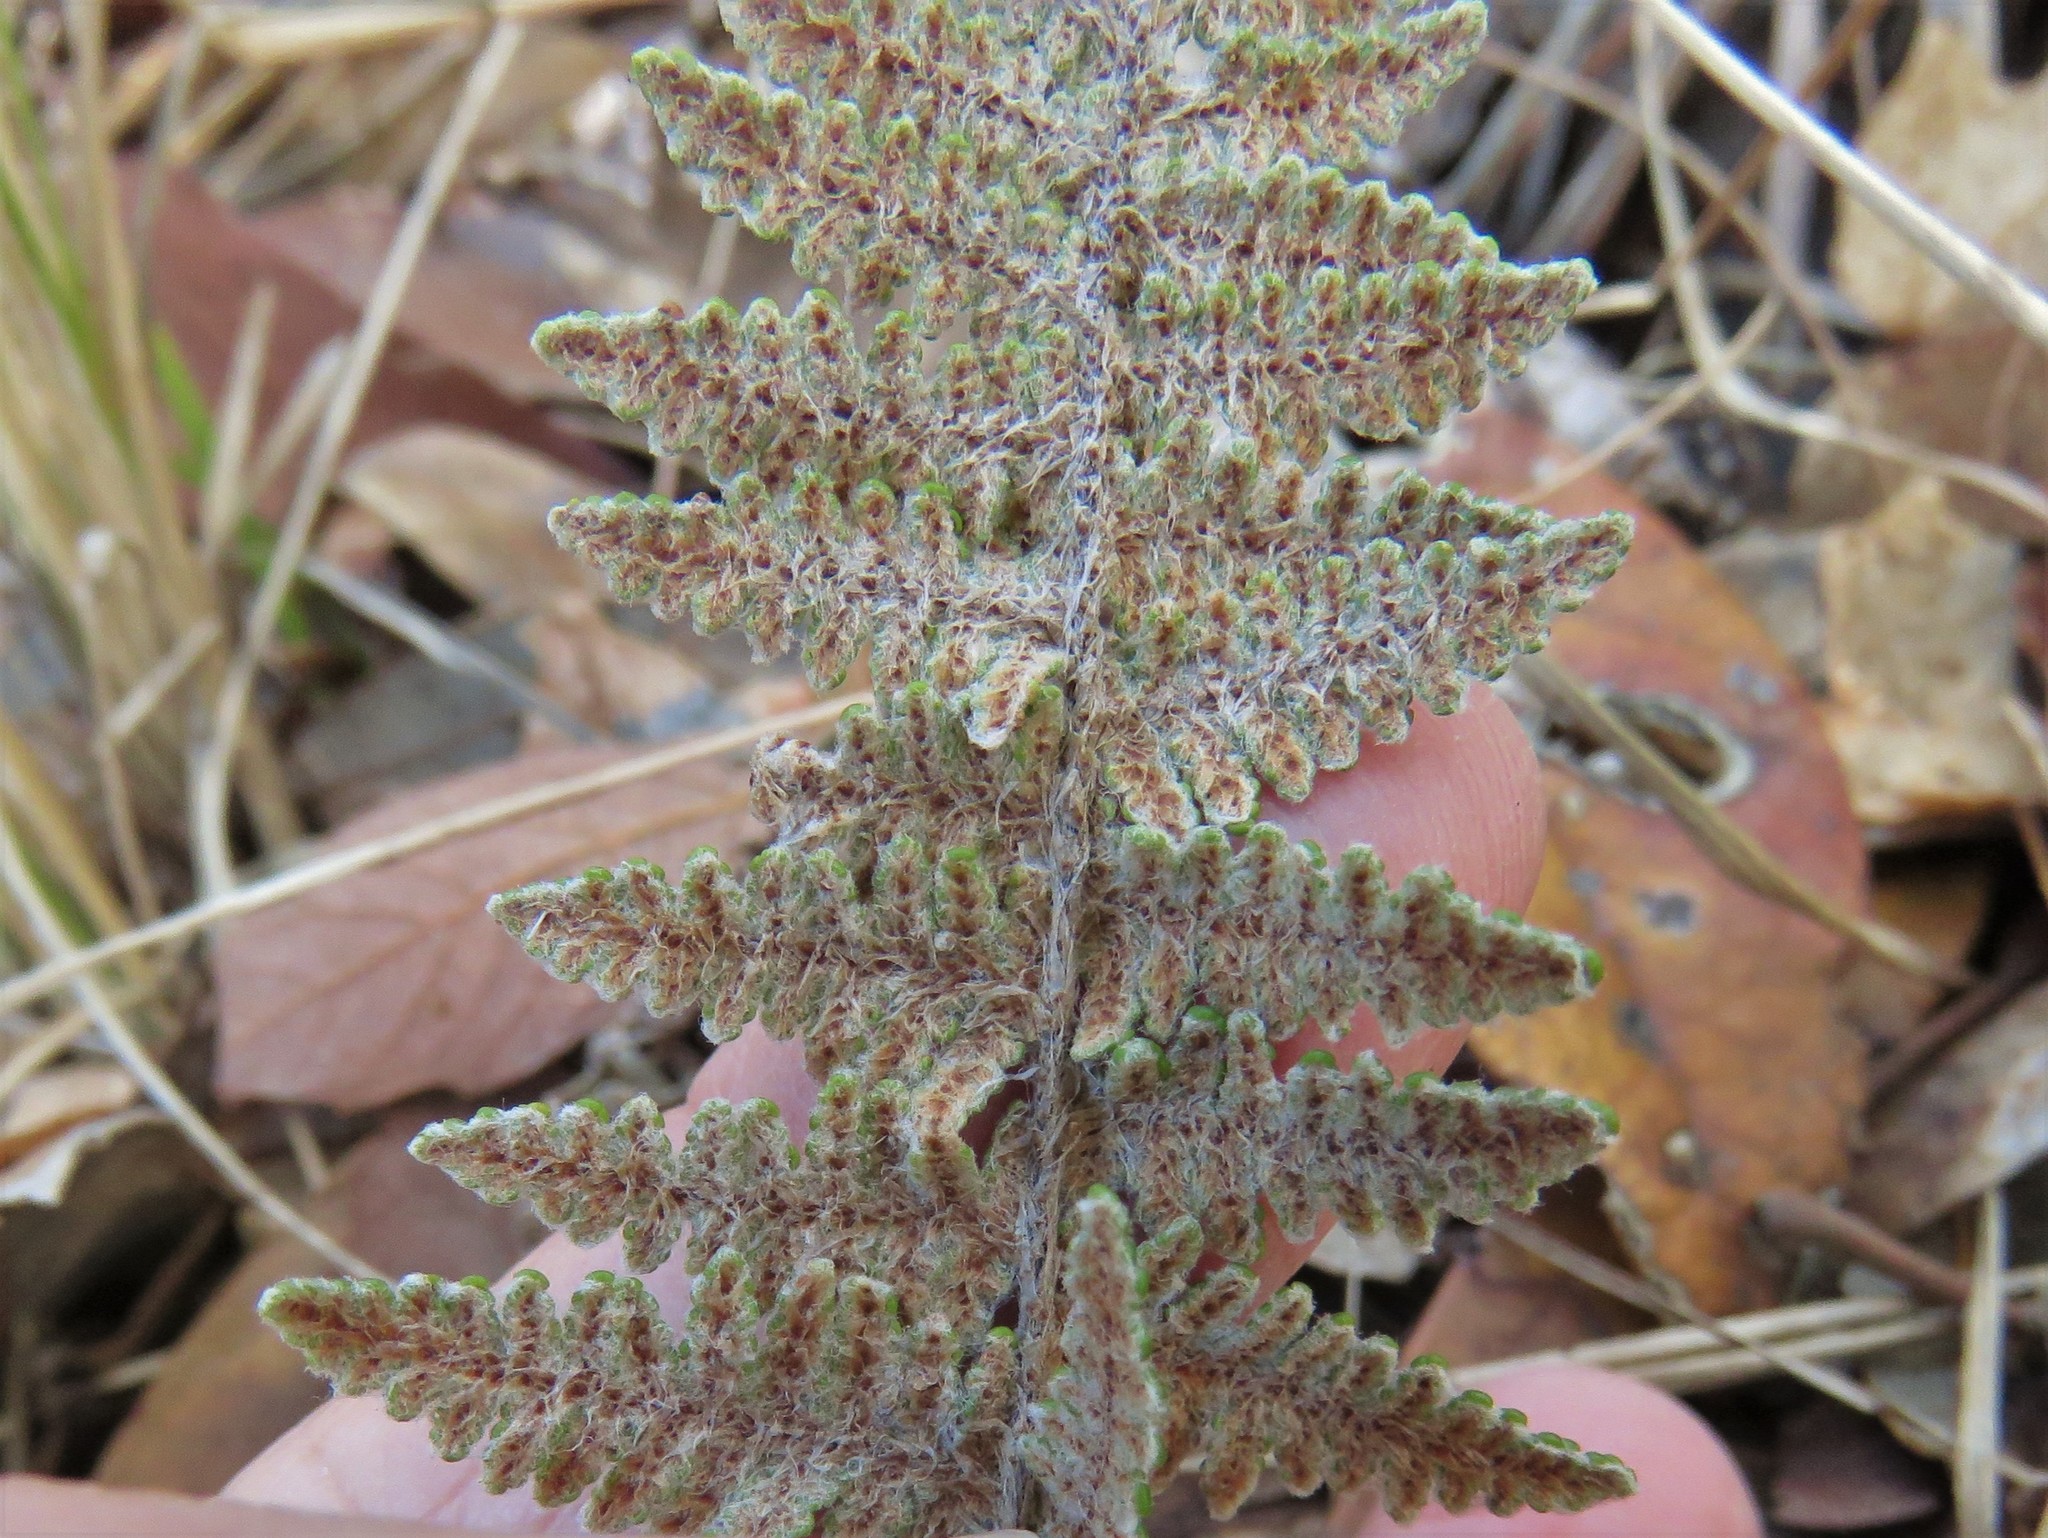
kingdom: Plantae
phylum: Tracheophyta
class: Polypodiopsida
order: Polypodiales
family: Pteridaceae
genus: Myriopteris
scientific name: Myriopteris lindheimeri
